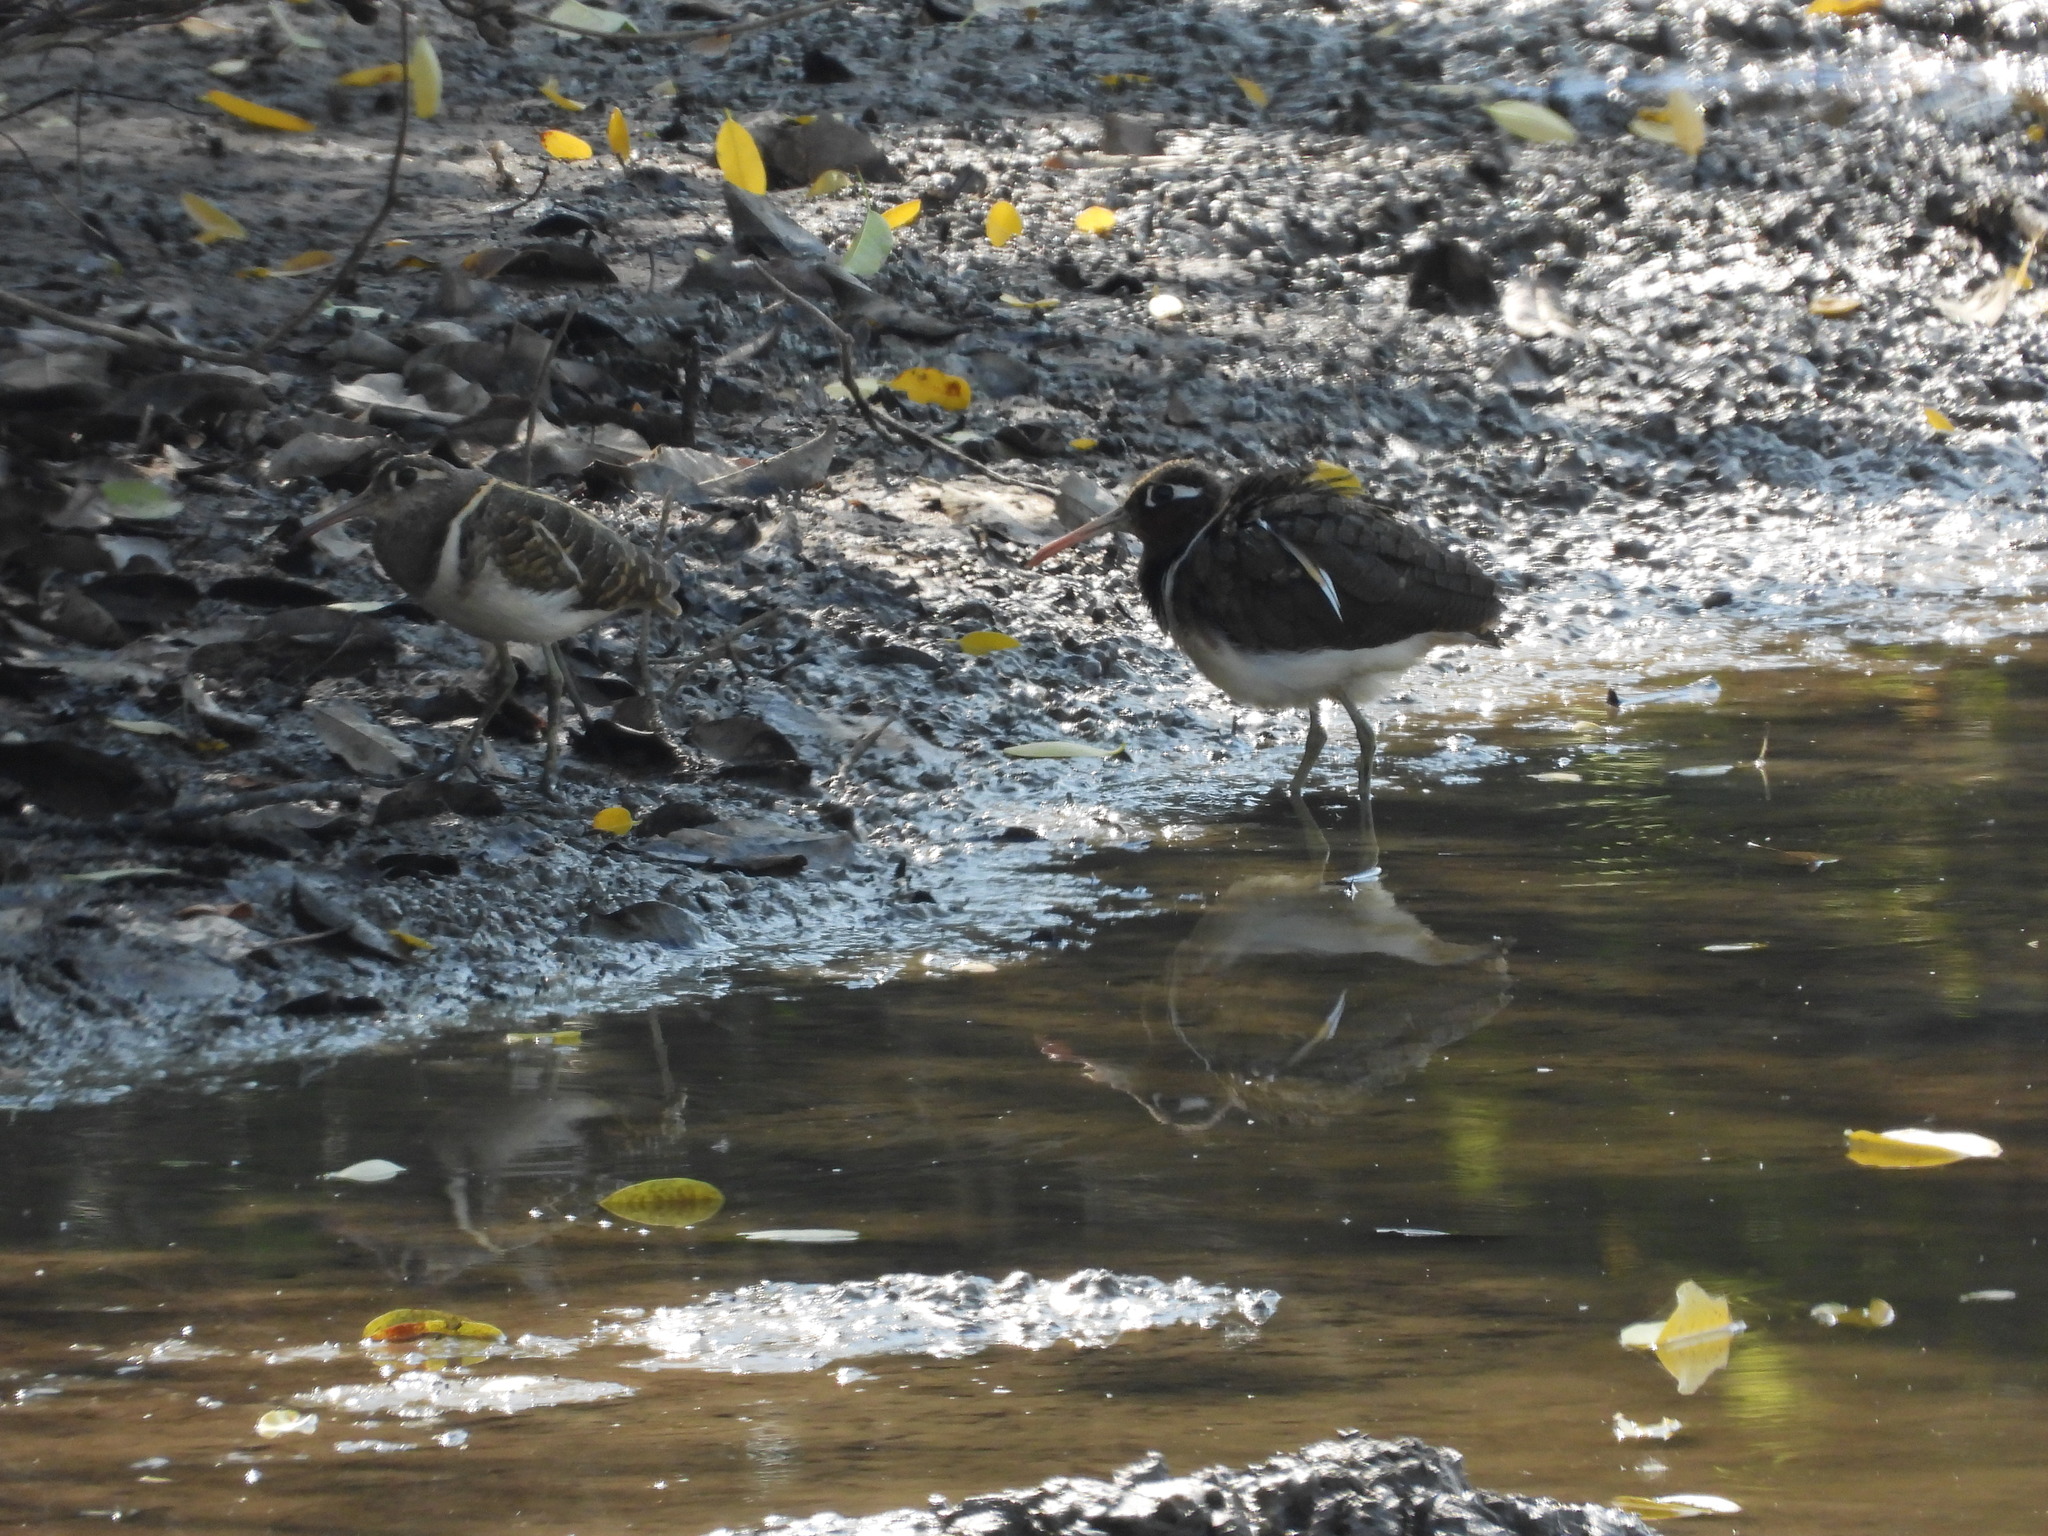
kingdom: Animalia
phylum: Chordata
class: Aves
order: Charadriiformes
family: Rostratulidae
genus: Rostratula
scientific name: Rostratula benghalensis
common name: Greater painted-snipe
